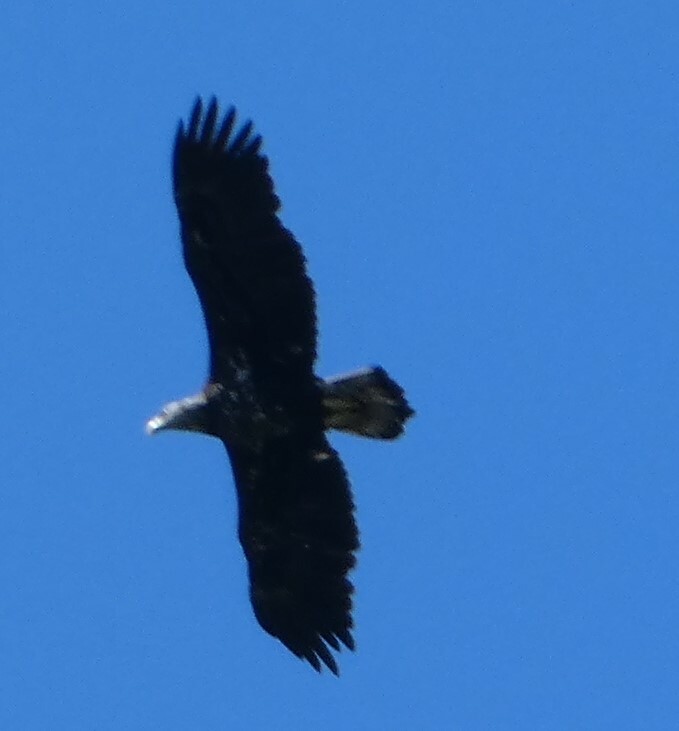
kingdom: Animalia
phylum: Chordata
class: Aves
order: Accipitriformes
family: Accipitridae
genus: Haliaeetus
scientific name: Haliaeetus leucocephalus
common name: Bald eagle
